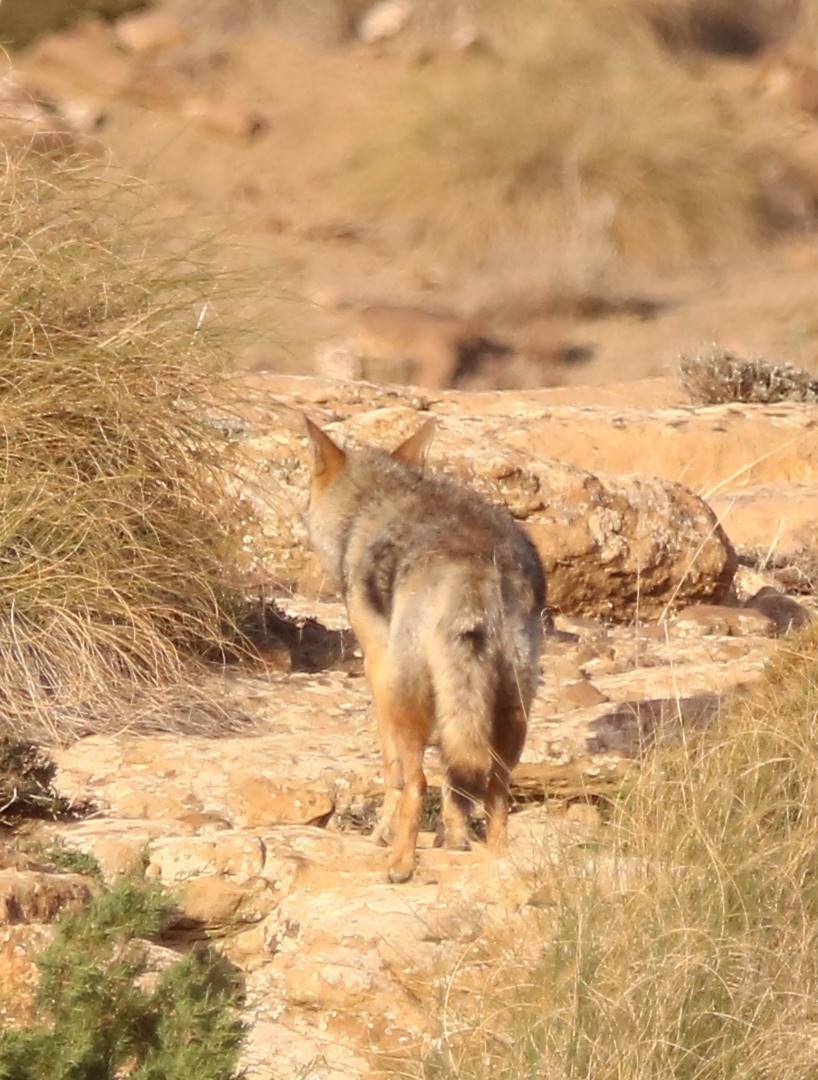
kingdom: Animalia
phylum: Chordata
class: Mammalia
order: Carnivora
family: Canidae
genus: Canis
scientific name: Canis lupaster
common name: African golden wolf
